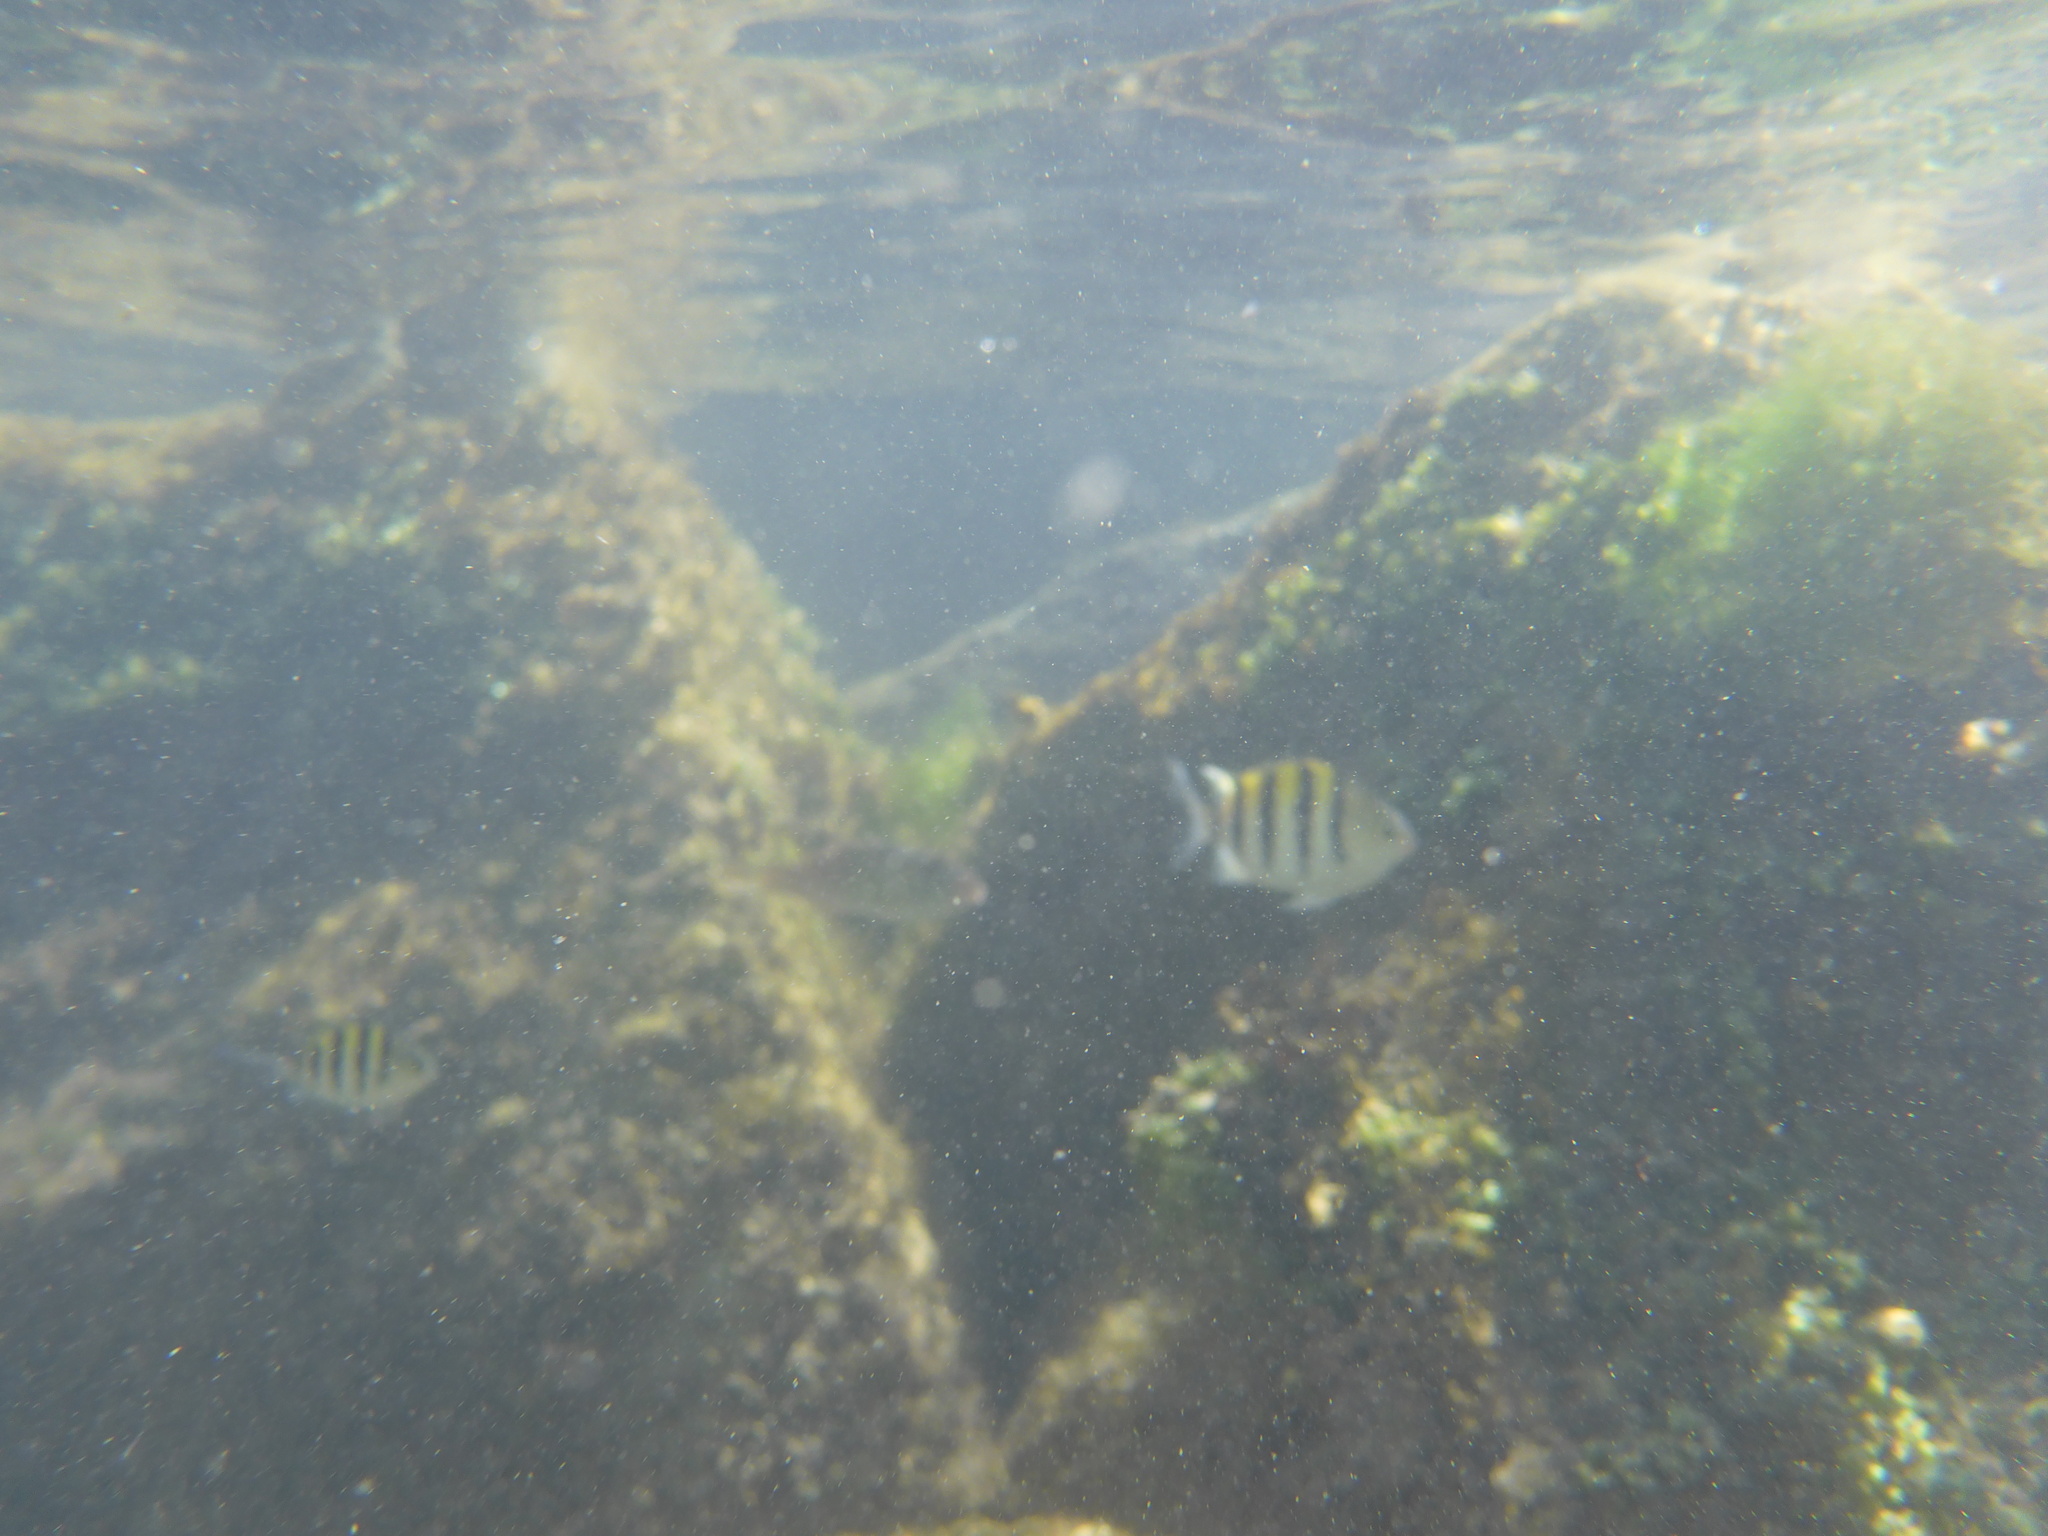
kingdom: Animalia
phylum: Chordata
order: Perciformes
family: Pomacentridae
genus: Abudefduf
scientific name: Abudefduf saxatilis
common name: Sergeant major
